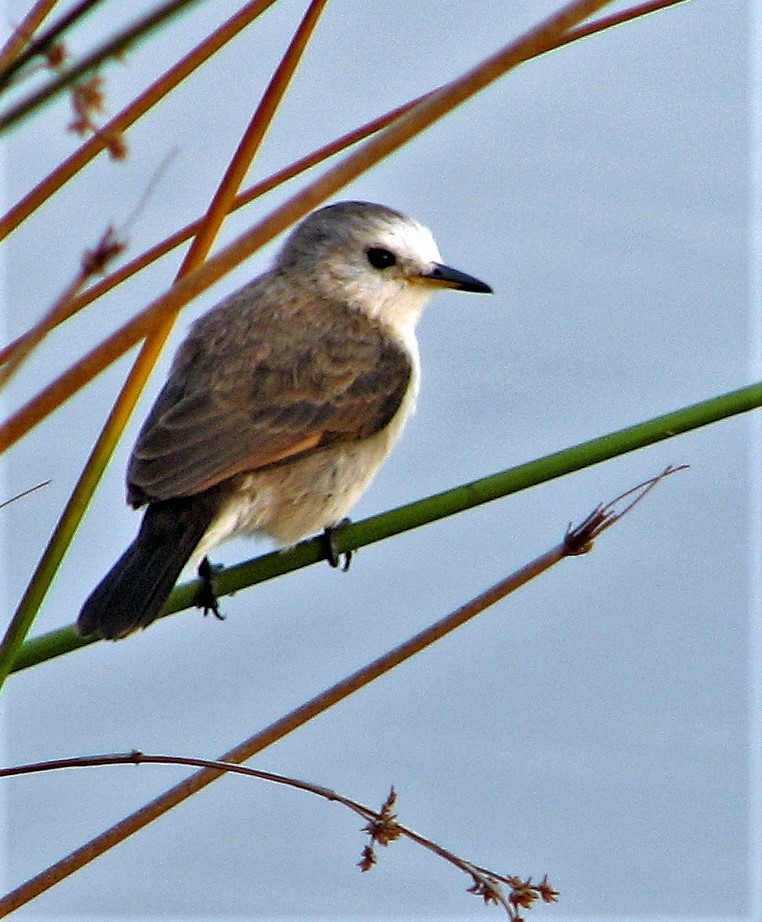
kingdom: Animalia
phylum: Chordata
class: Aves
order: Passeriformes
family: Tyrannidae
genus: Arundinicola
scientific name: Arundinicola leucocephala
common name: White-headed marsh tyrant
